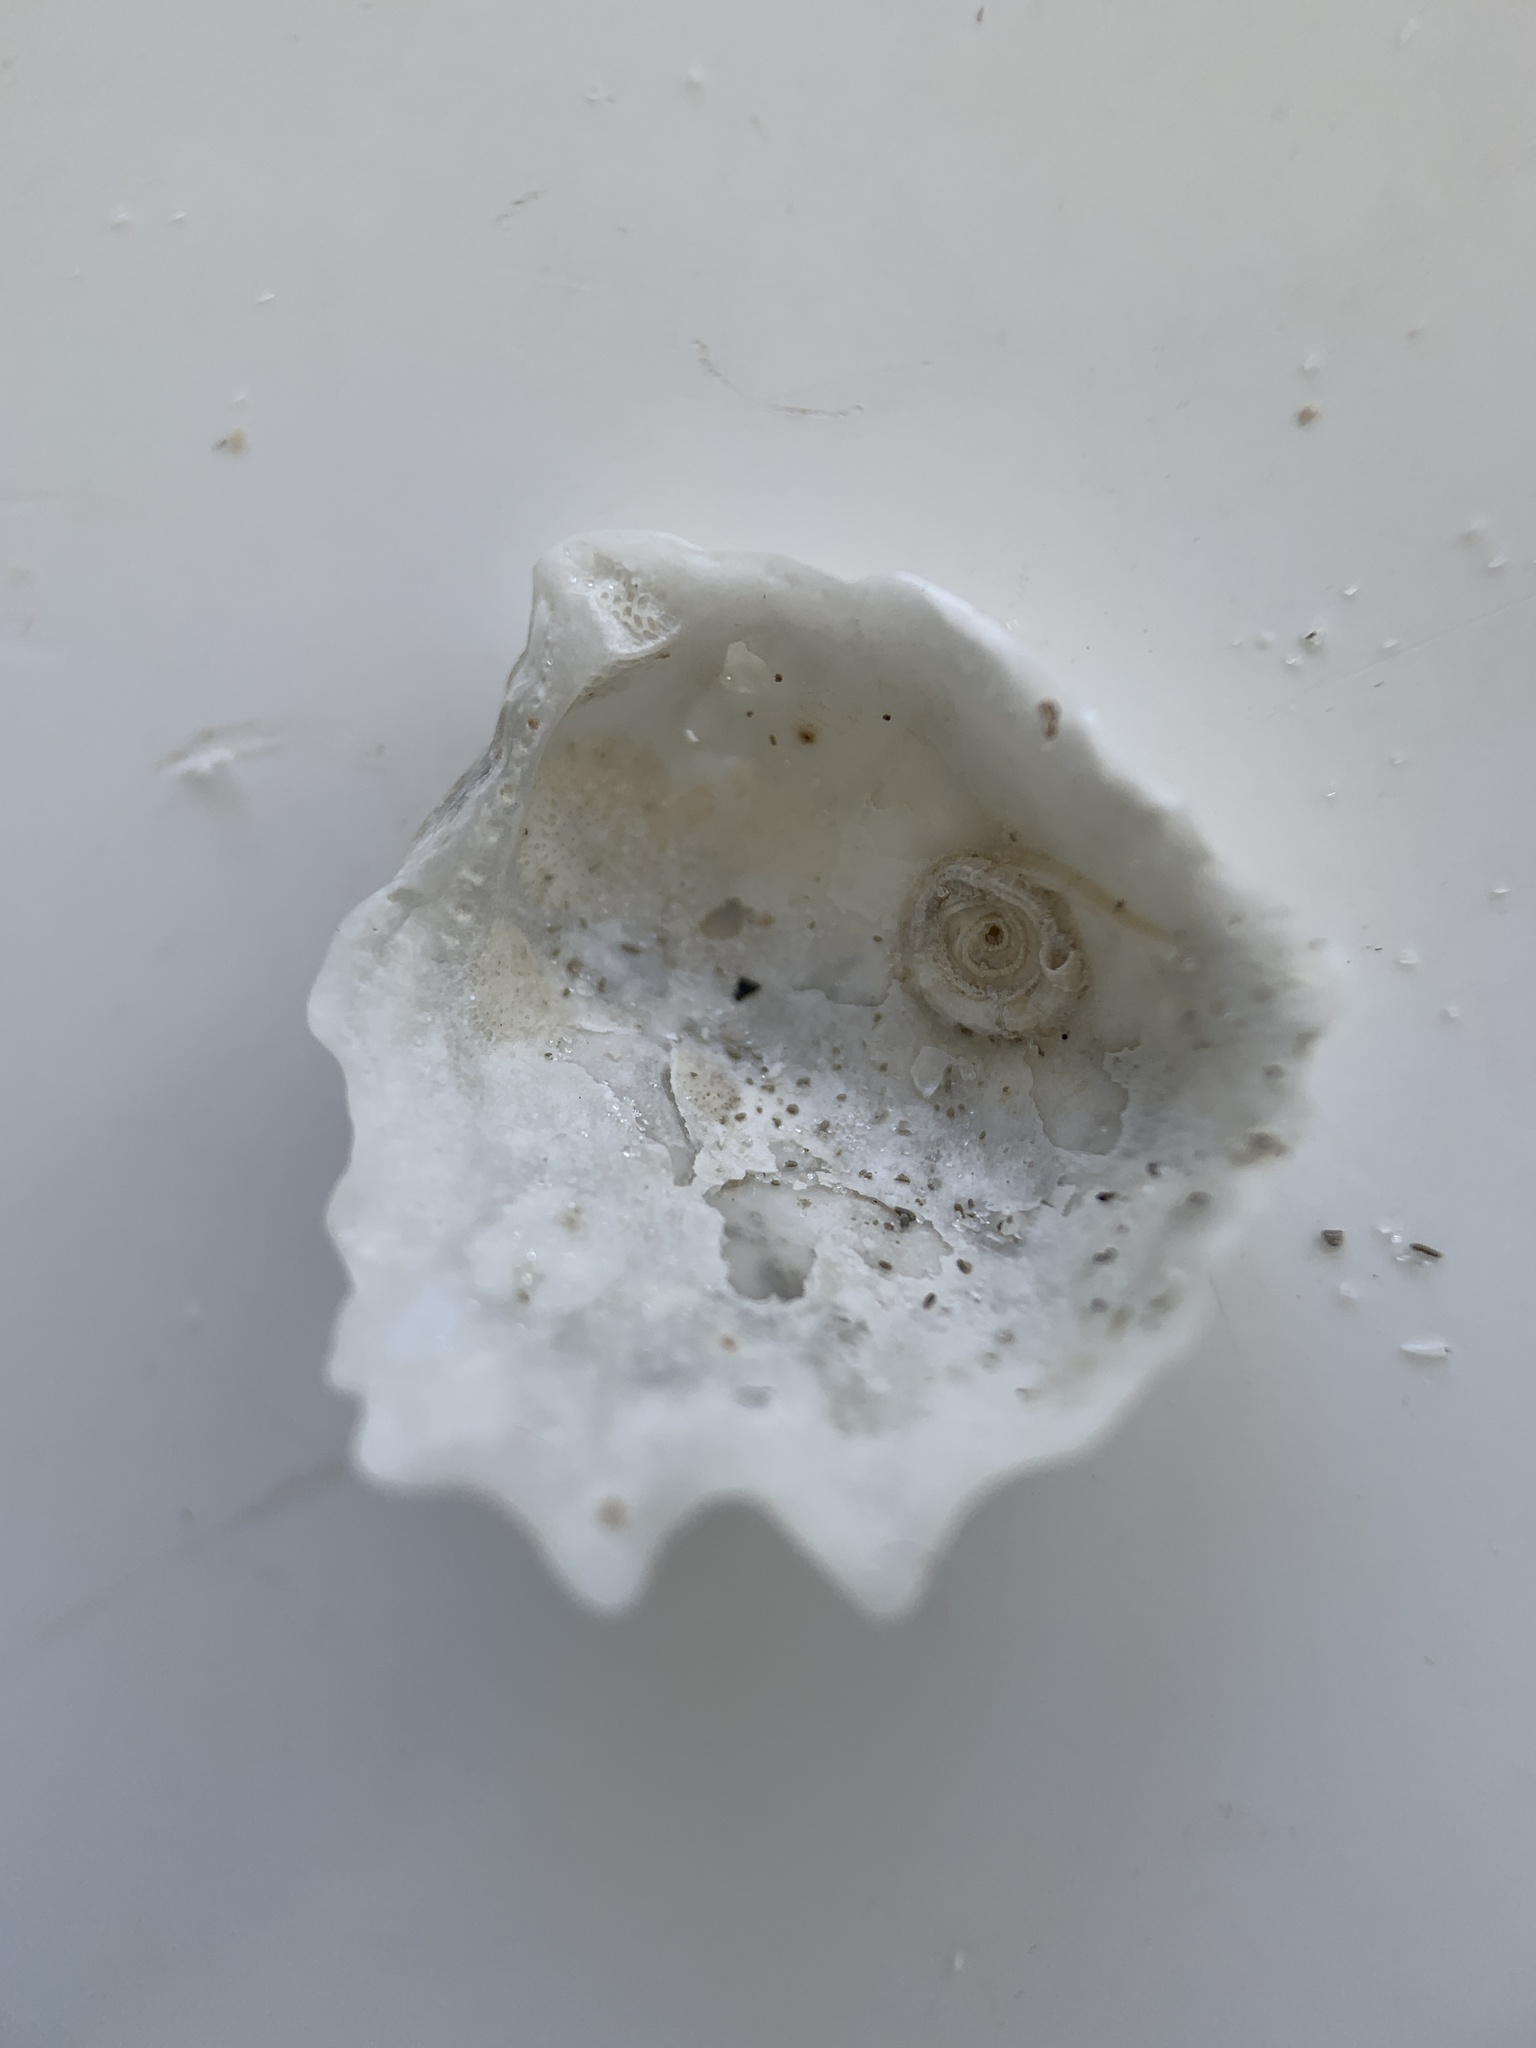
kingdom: Animalia
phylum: Mollusca
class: Bivalvia
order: Pectinida
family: Plicatulidae
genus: Plicatula
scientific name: Plicatula gibbosa
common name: Atlantic kitten's paw
